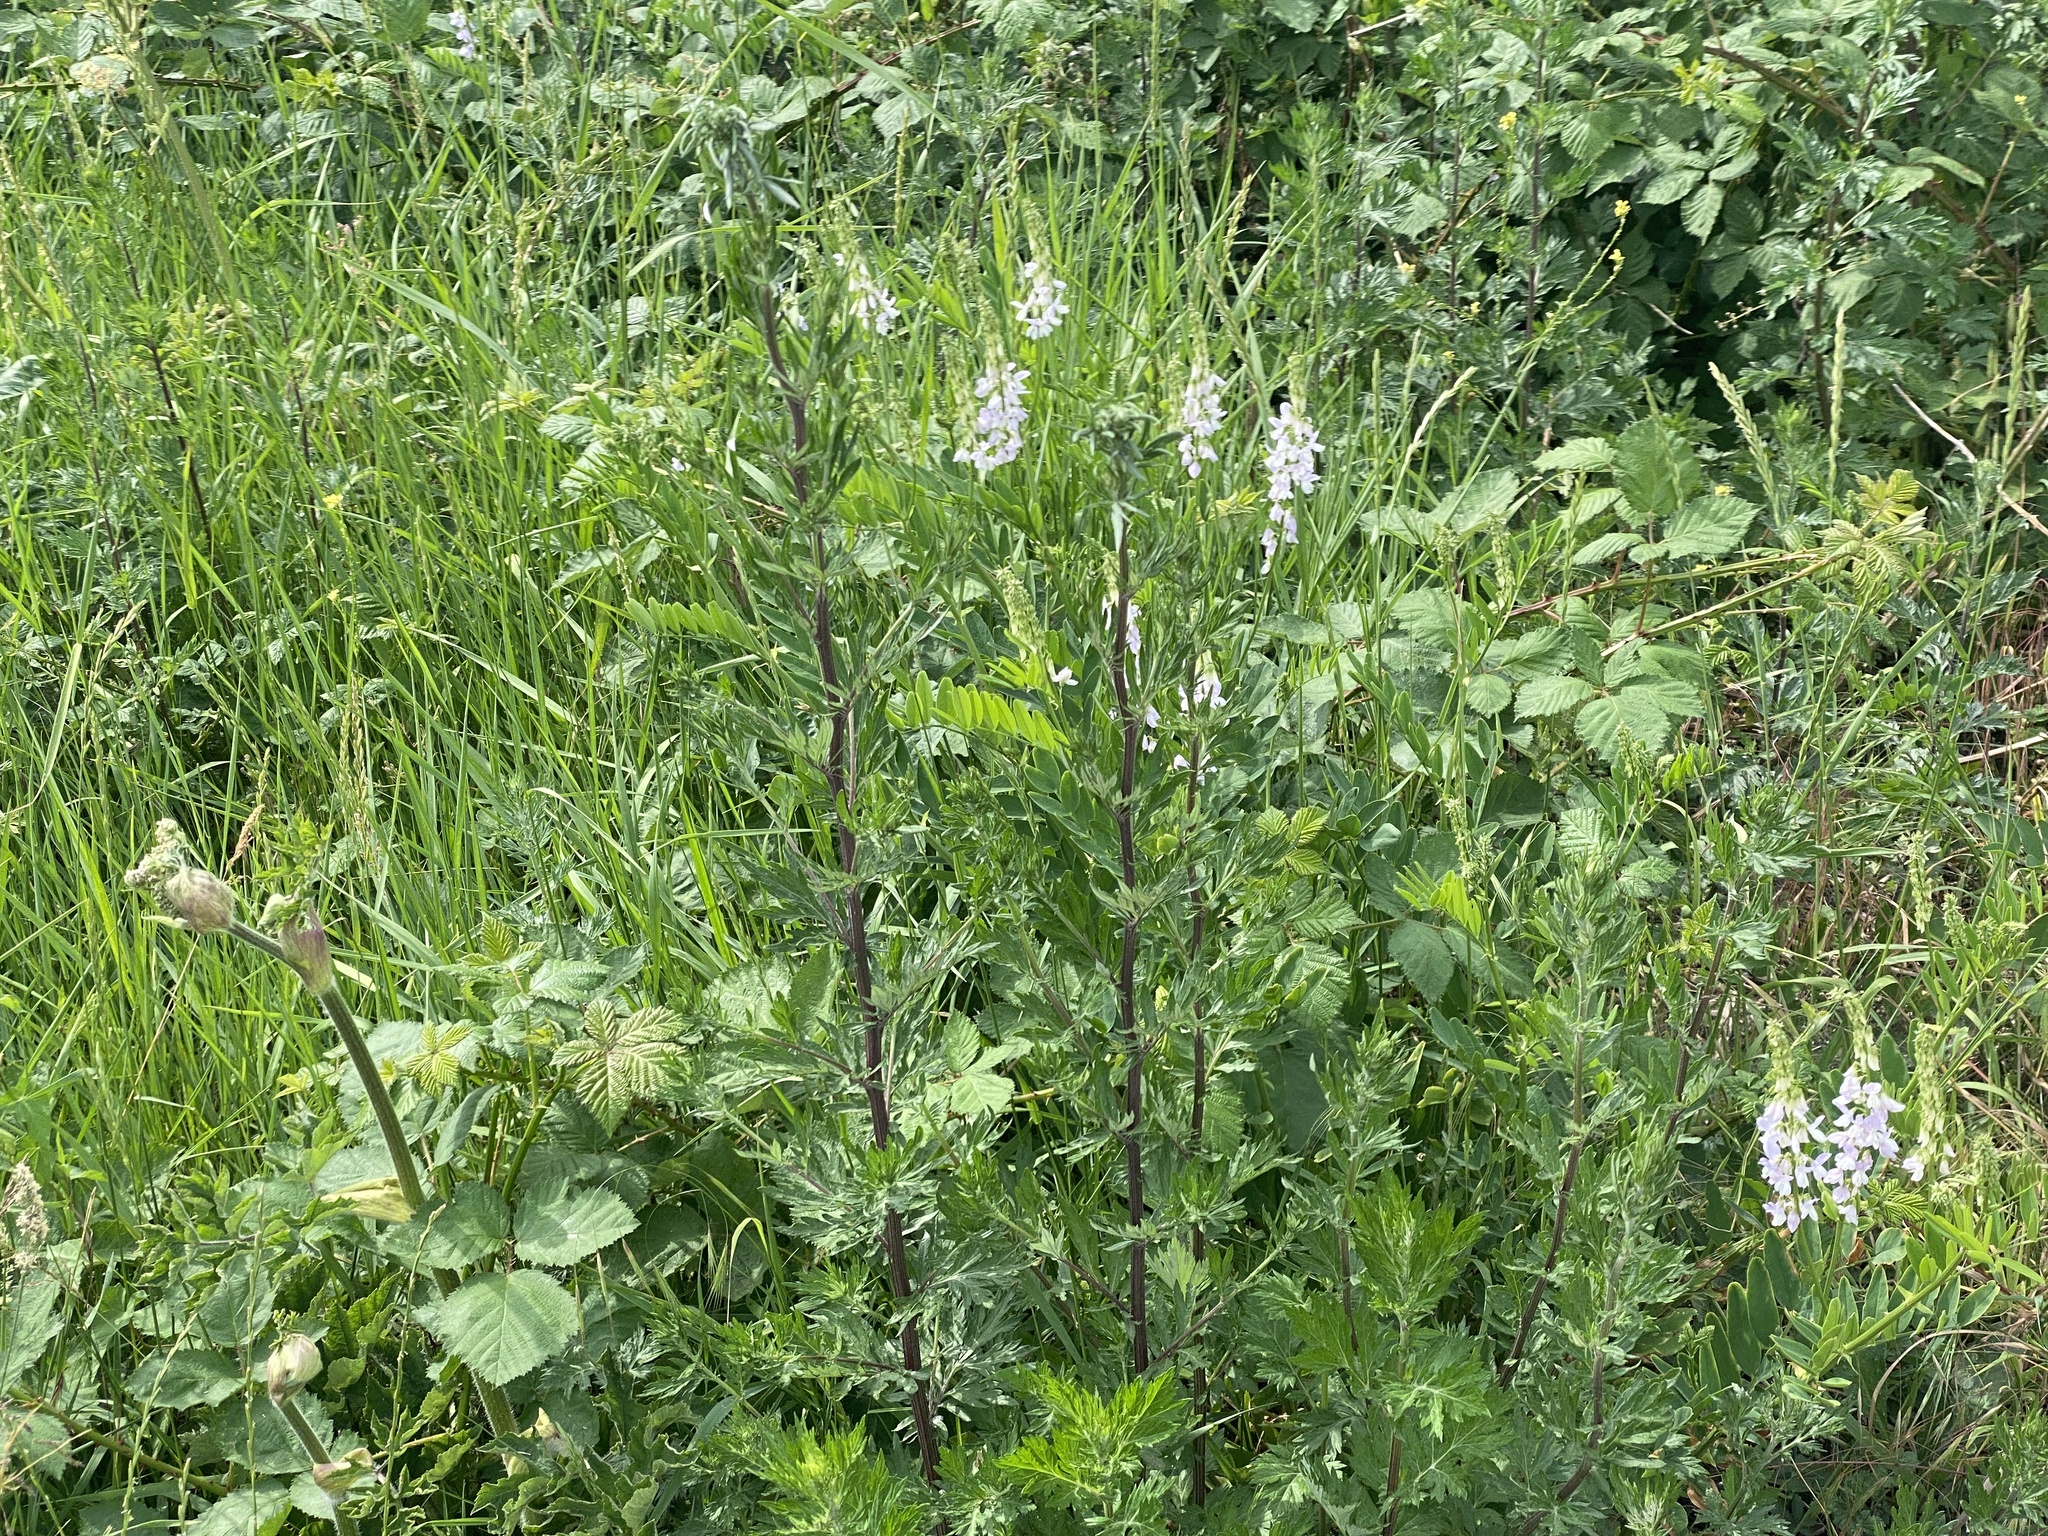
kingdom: Plantae
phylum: Tracheophyta
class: Magnoliopsida
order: Fabales
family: Fabaceae
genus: Galega
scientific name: Galega officinalis
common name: Goat's-rue
